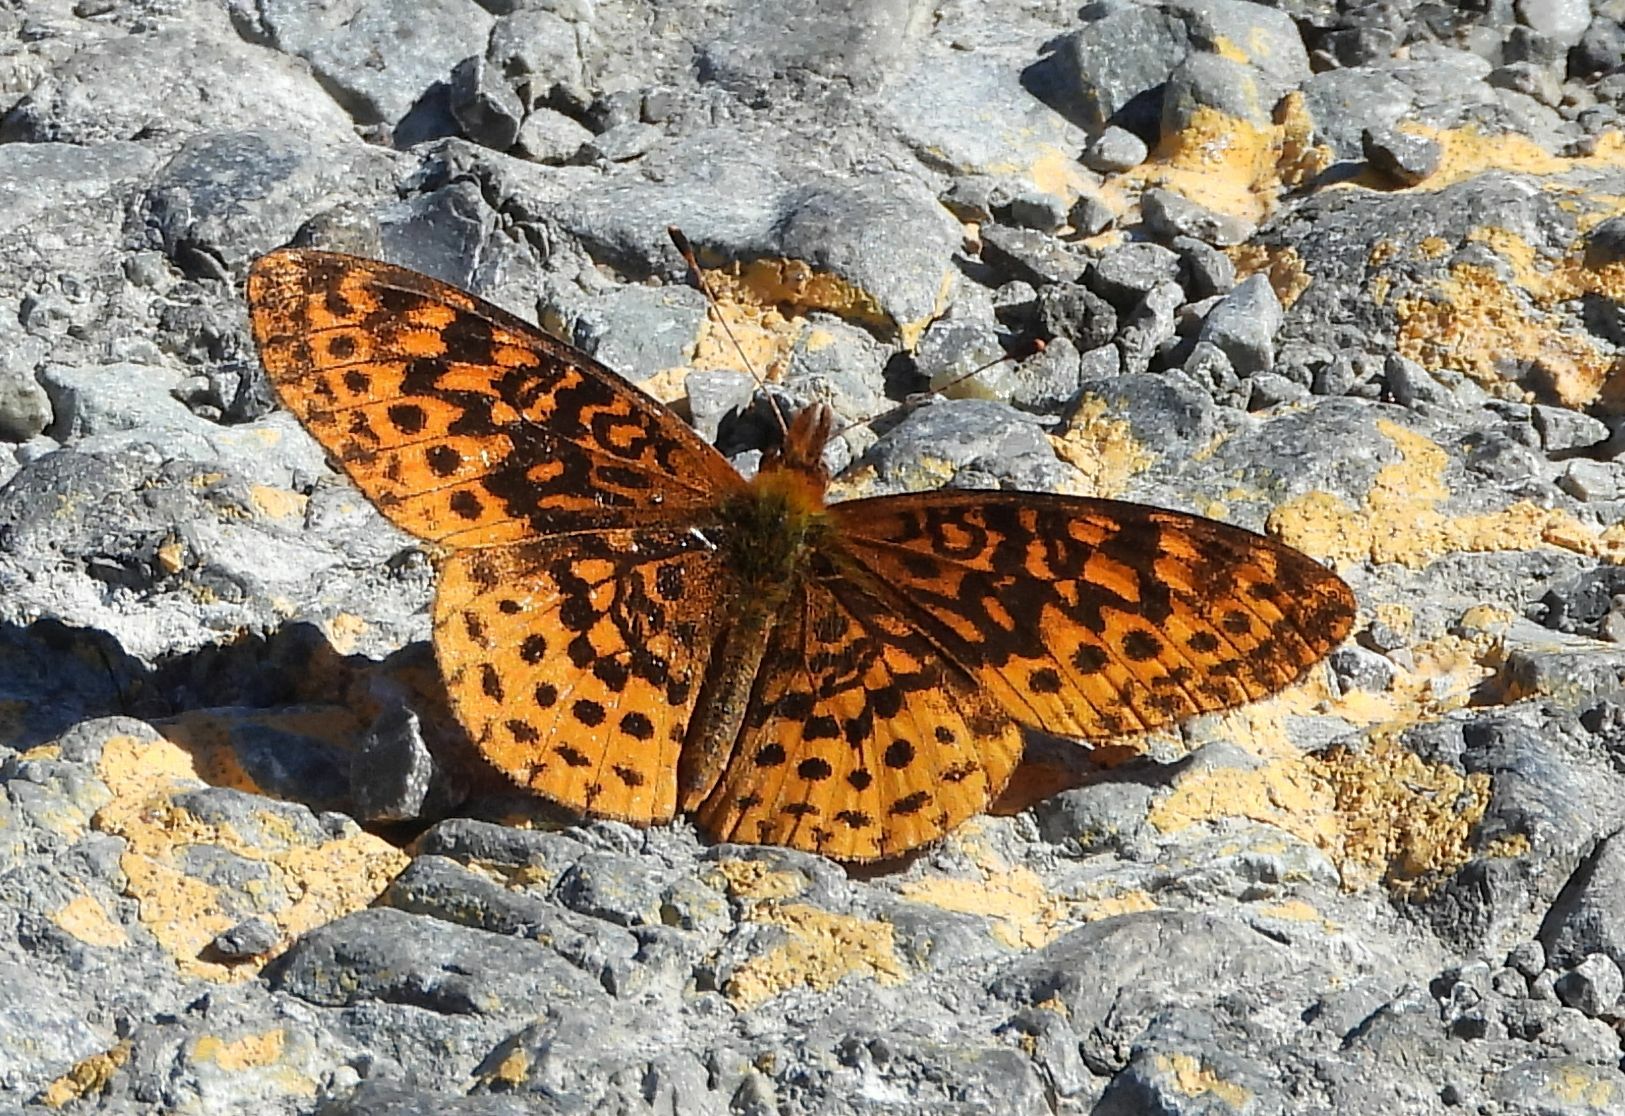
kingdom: Animalia
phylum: Arthropoda
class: Insecta
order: Lepidoptera
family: Nymphalidae
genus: Clossiana
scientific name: Clossiana toddi
